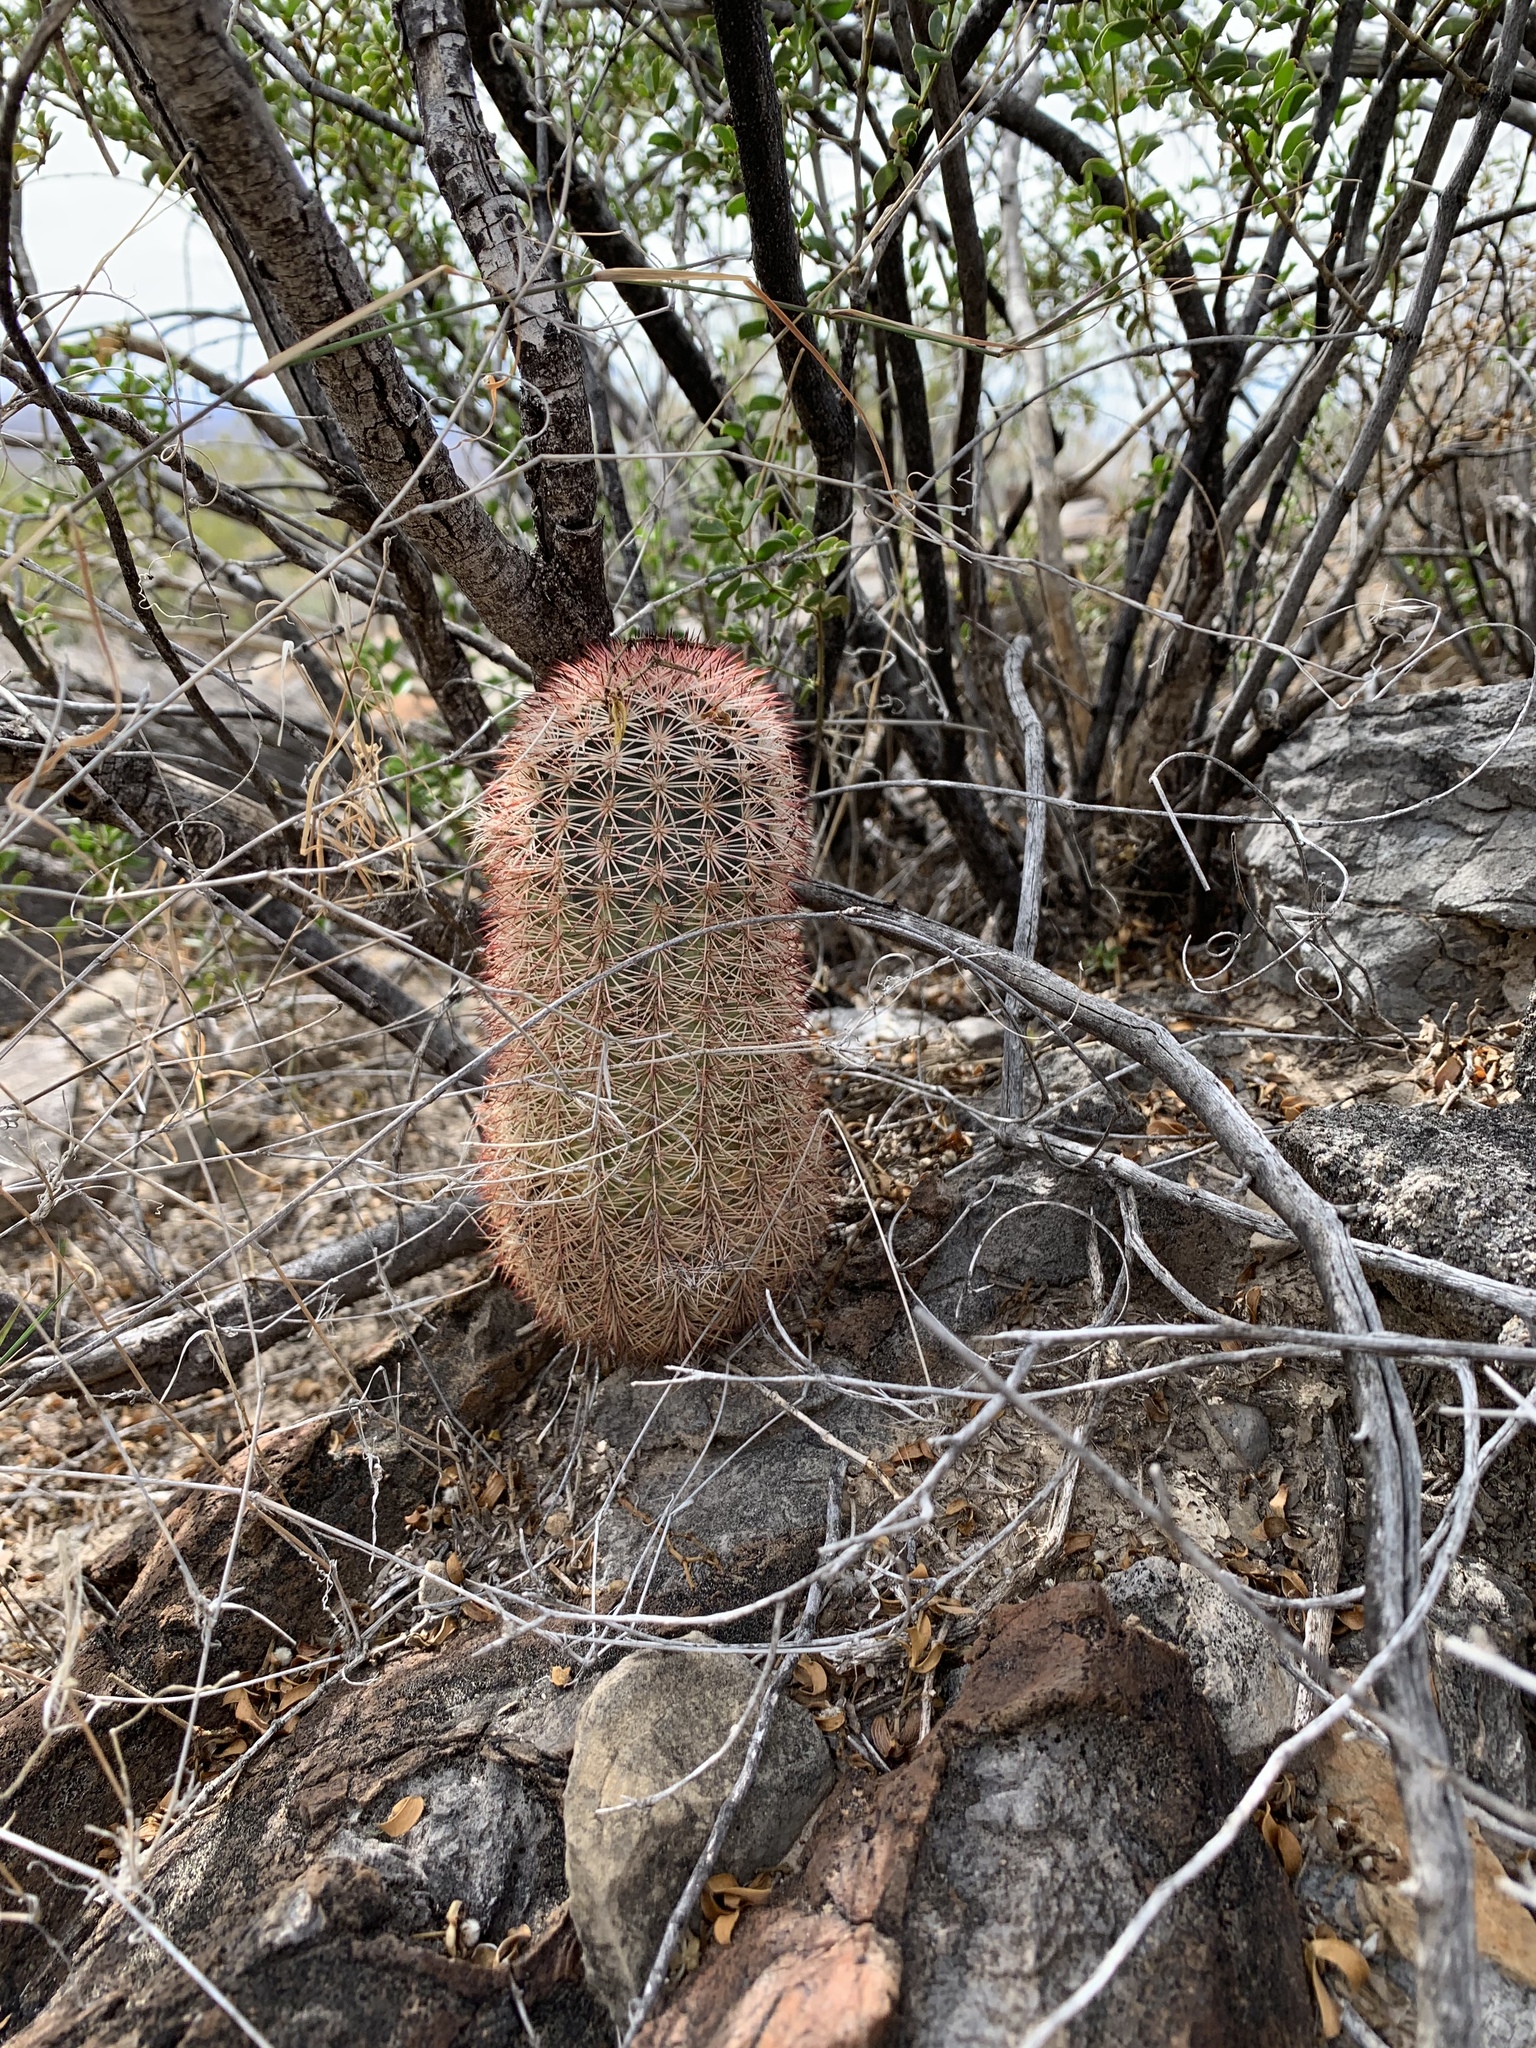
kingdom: Plantae
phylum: Tracheophyta
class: Magnoliopsida
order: Caryophyllales
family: Cactaceae
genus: Echinocereus
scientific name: Echinocereus dasyacanthus
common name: Spiny hedgehog cactus
